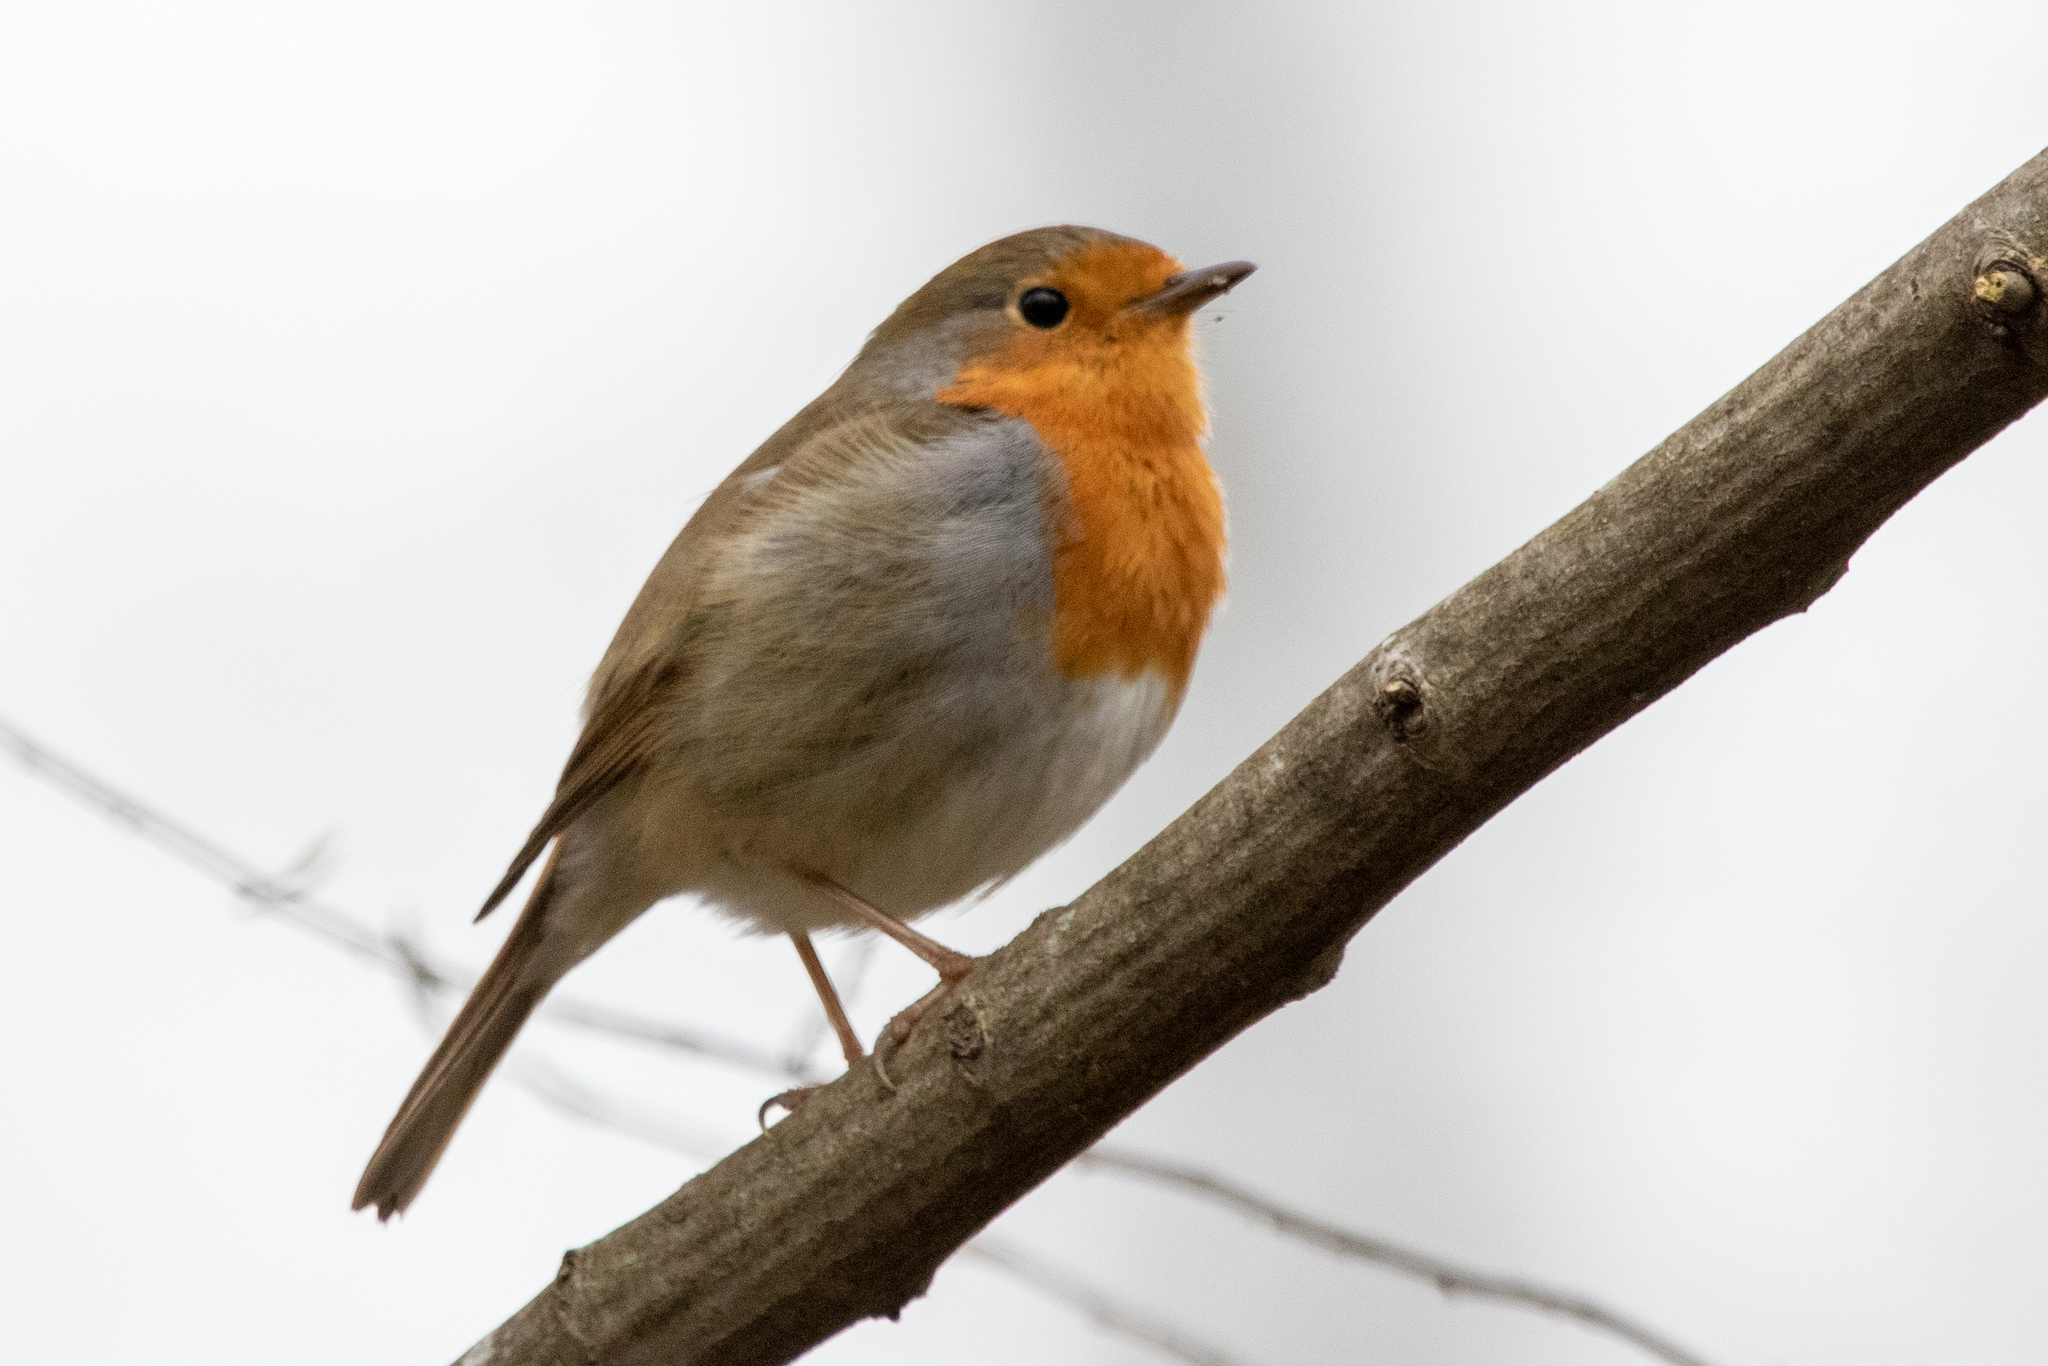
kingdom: Animalia
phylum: Chordata
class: Aves
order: Passeriformes
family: Muscicapidae
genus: Erithacus
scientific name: Erithacus rubecula
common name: European robin
